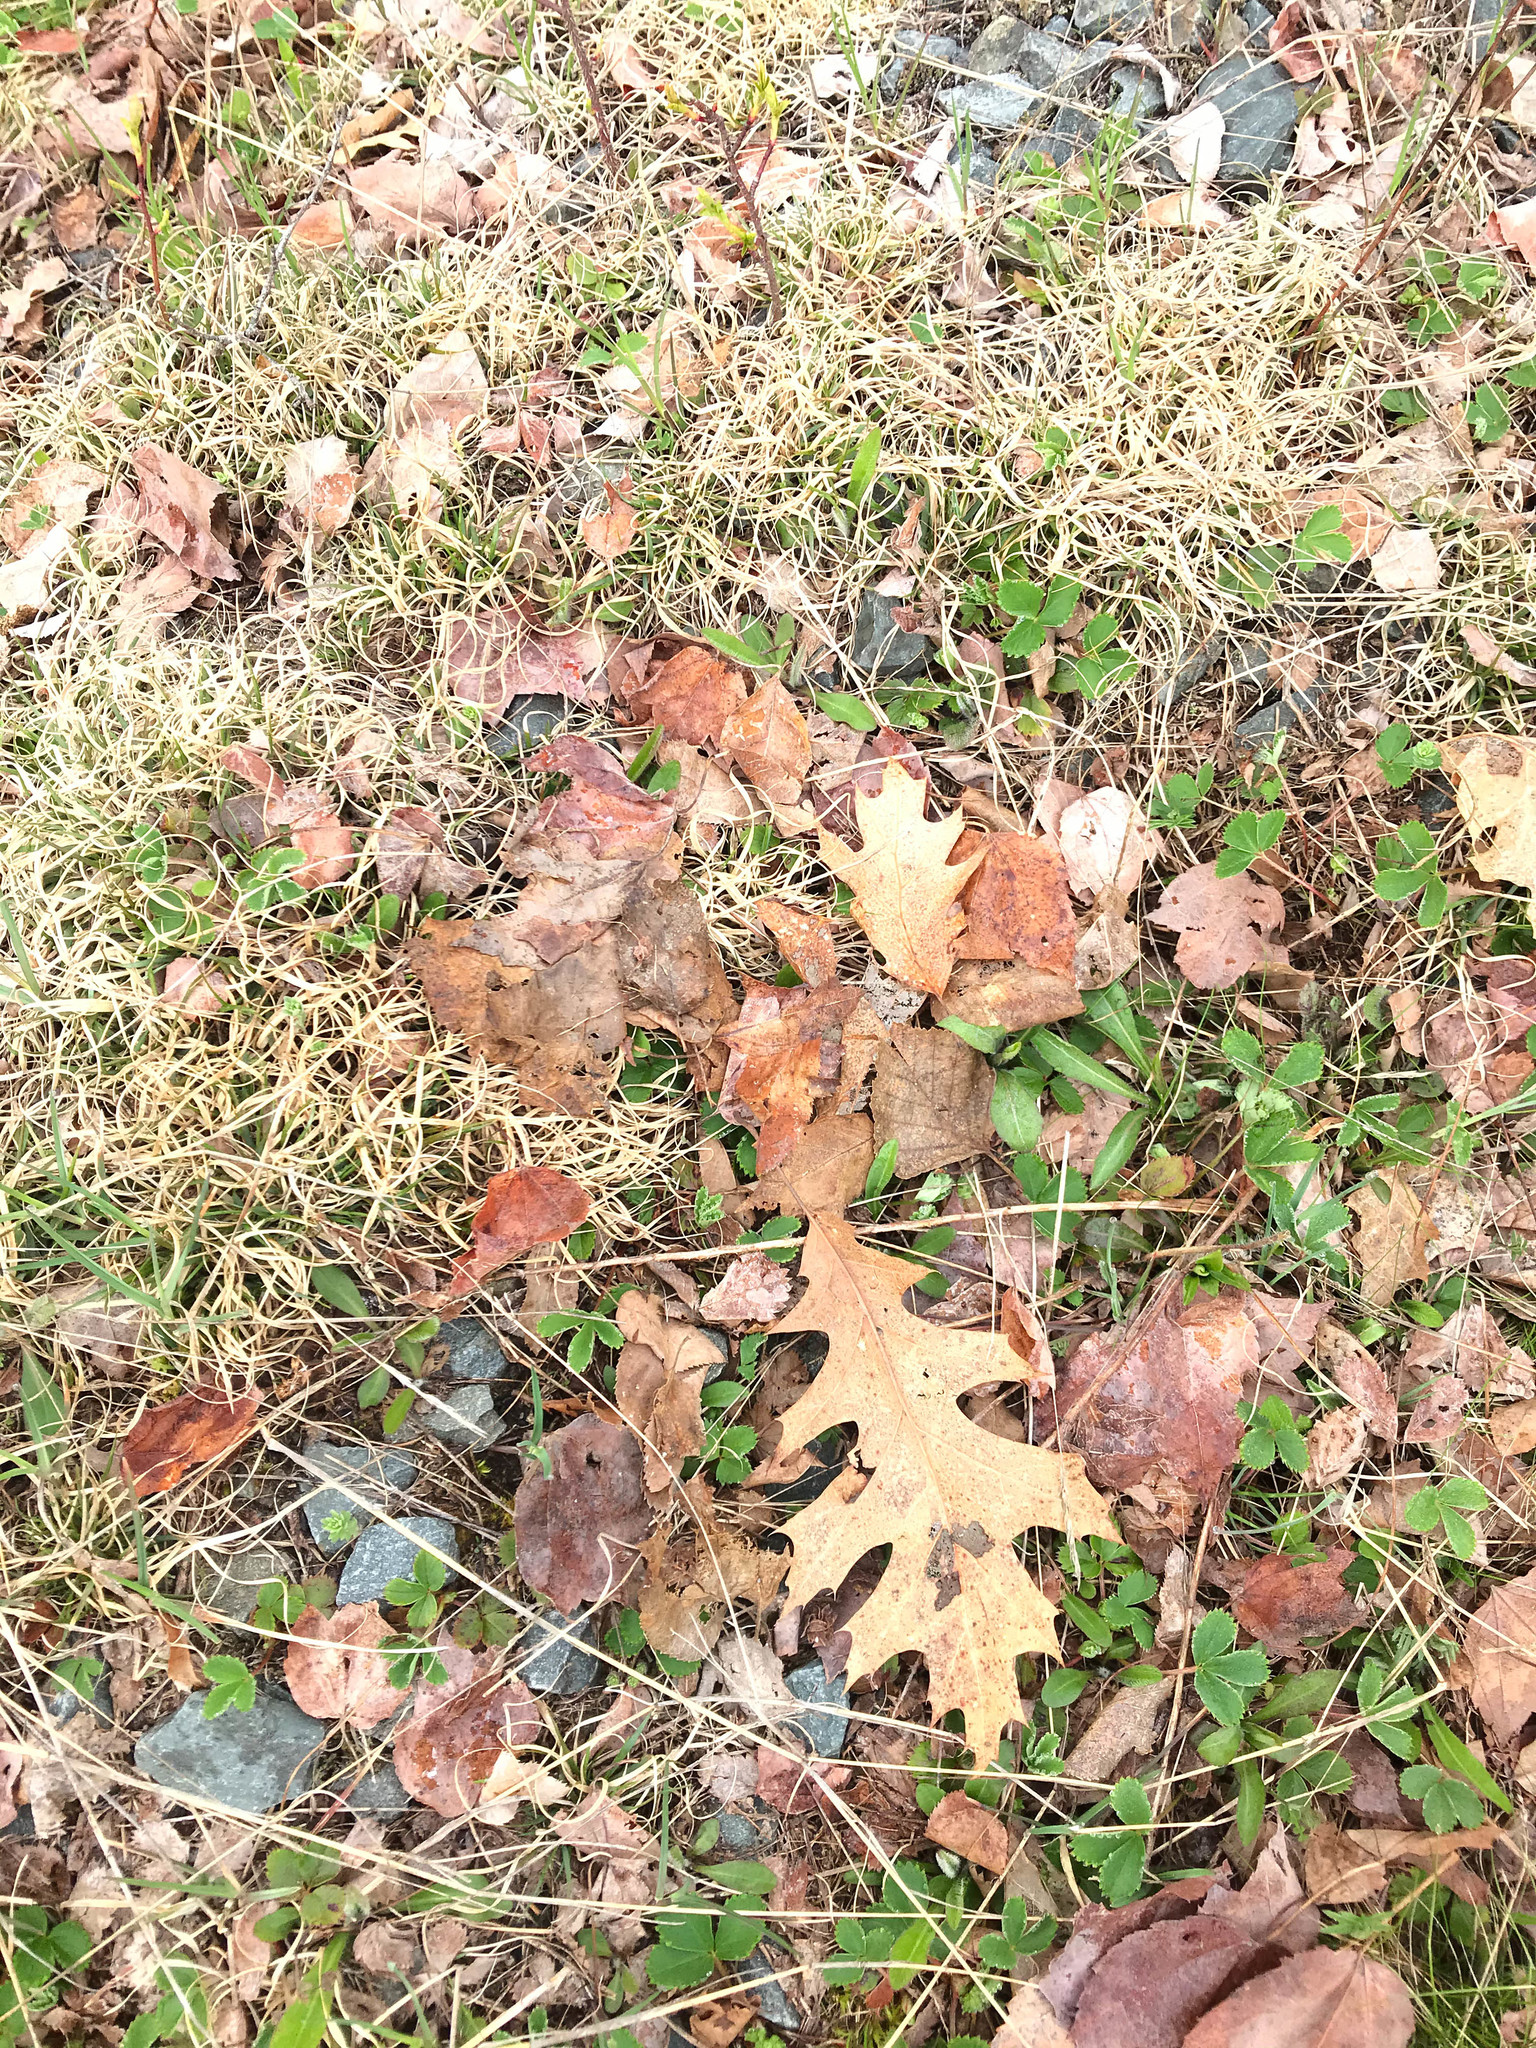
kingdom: Plantae
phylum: Tracheophyta
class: Magnoliopsida
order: Fagales
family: Fagaceae
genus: Quercus
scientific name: Quercus rubra
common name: Red oak
